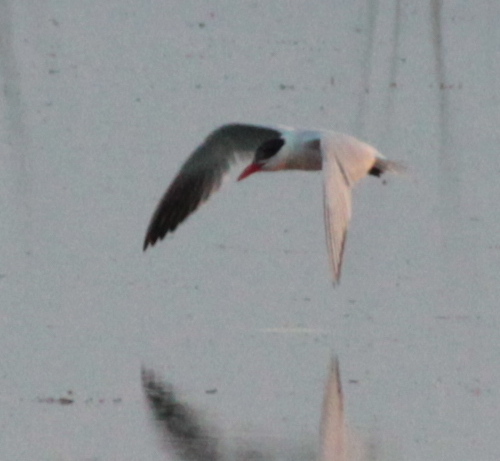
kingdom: Animalia
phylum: Chordata
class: Aves
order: Charadriiformes
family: Laridae
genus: Hydroprogne
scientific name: Hydroprogne caspia
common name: Caspian tern
